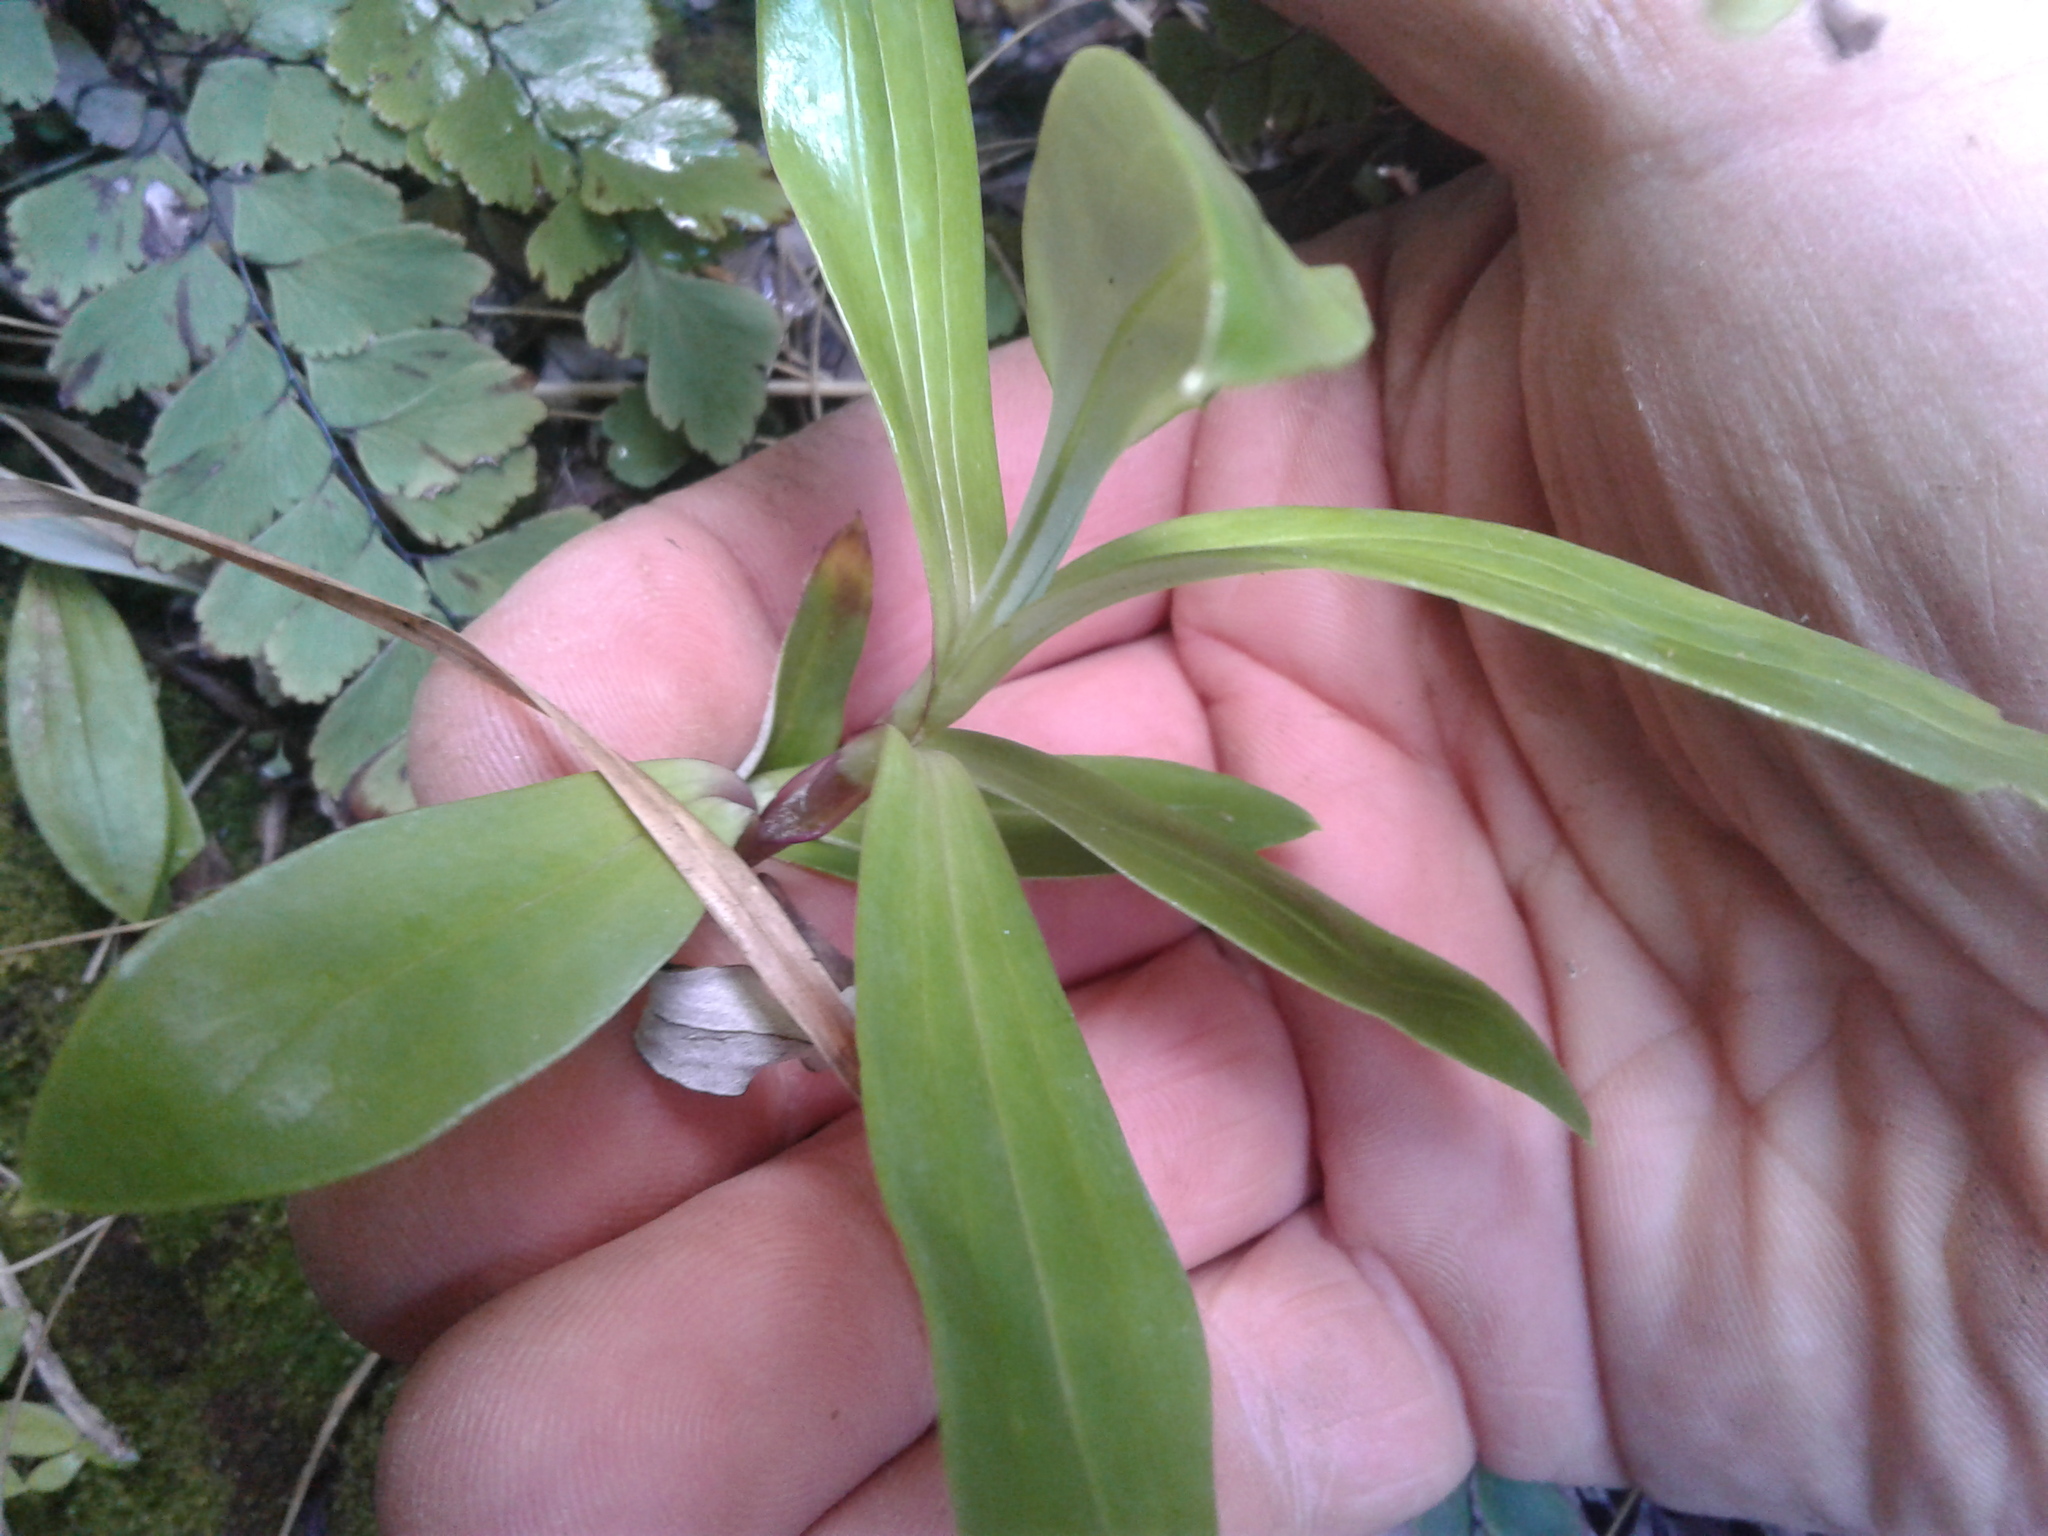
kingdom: Plantae
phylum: Tracheophyta
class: Magnoliopsida
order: Asterales
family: Asteraceae
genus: Anaphalioides
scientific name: Anaphalioides trinervis
